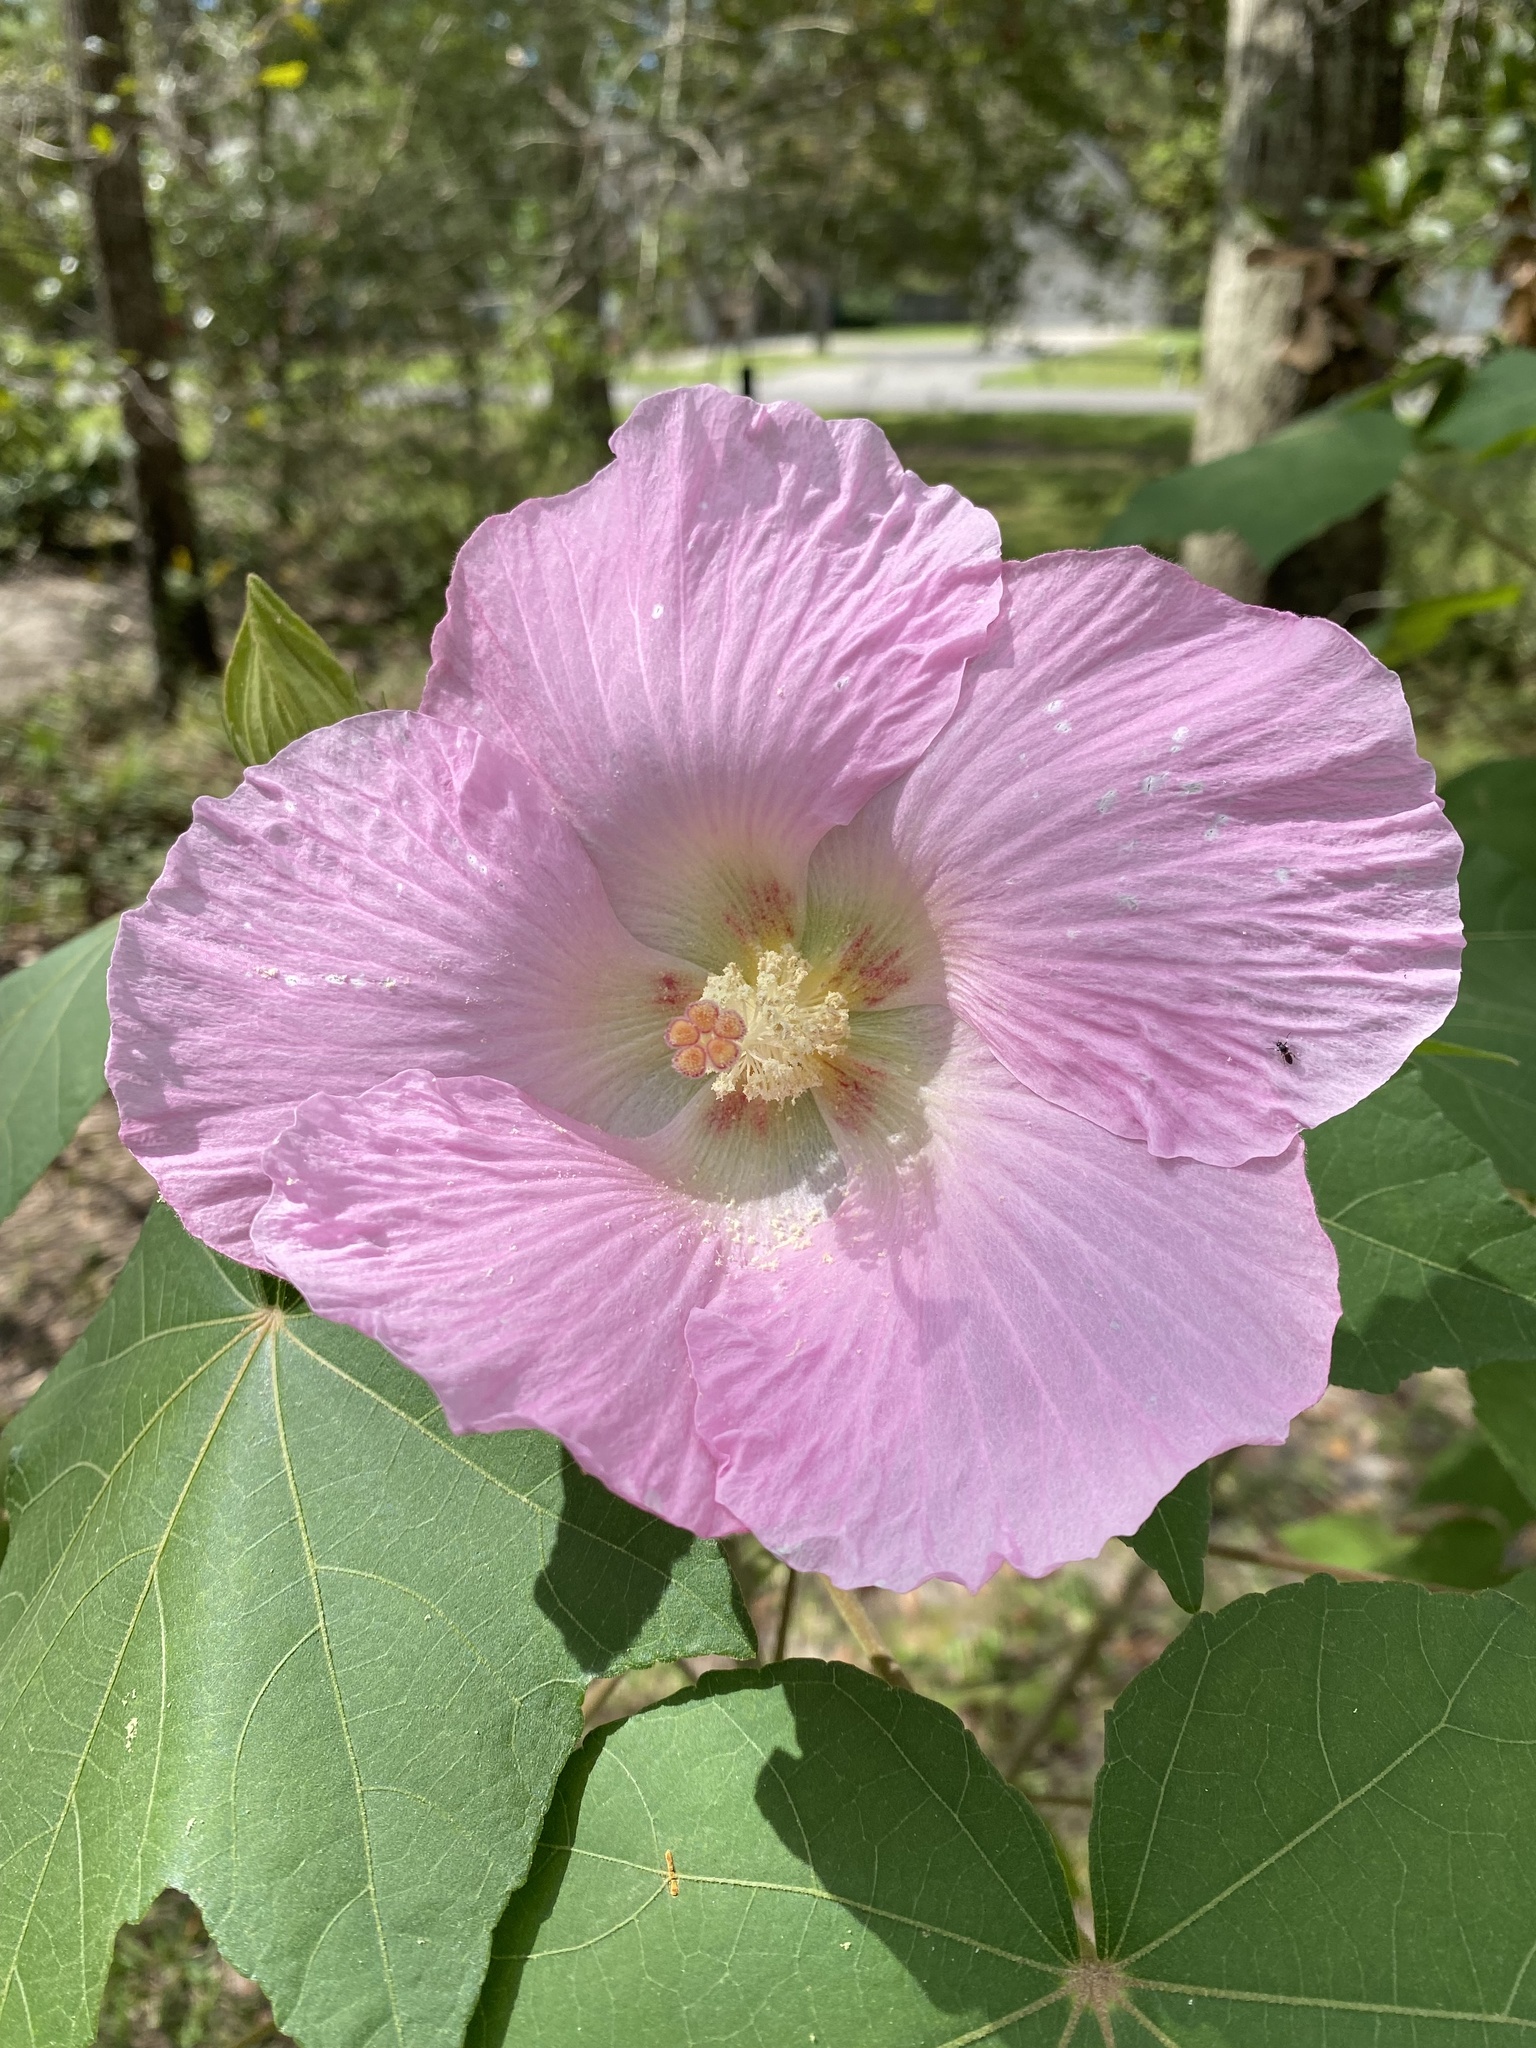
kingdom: Plantae
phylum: Tracheophyta
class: Magnoliopsida
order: Malvales
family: Malvaceae
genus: Hibiscus
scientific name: Hibiscus mutabilis
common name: Dixie rosemallow
